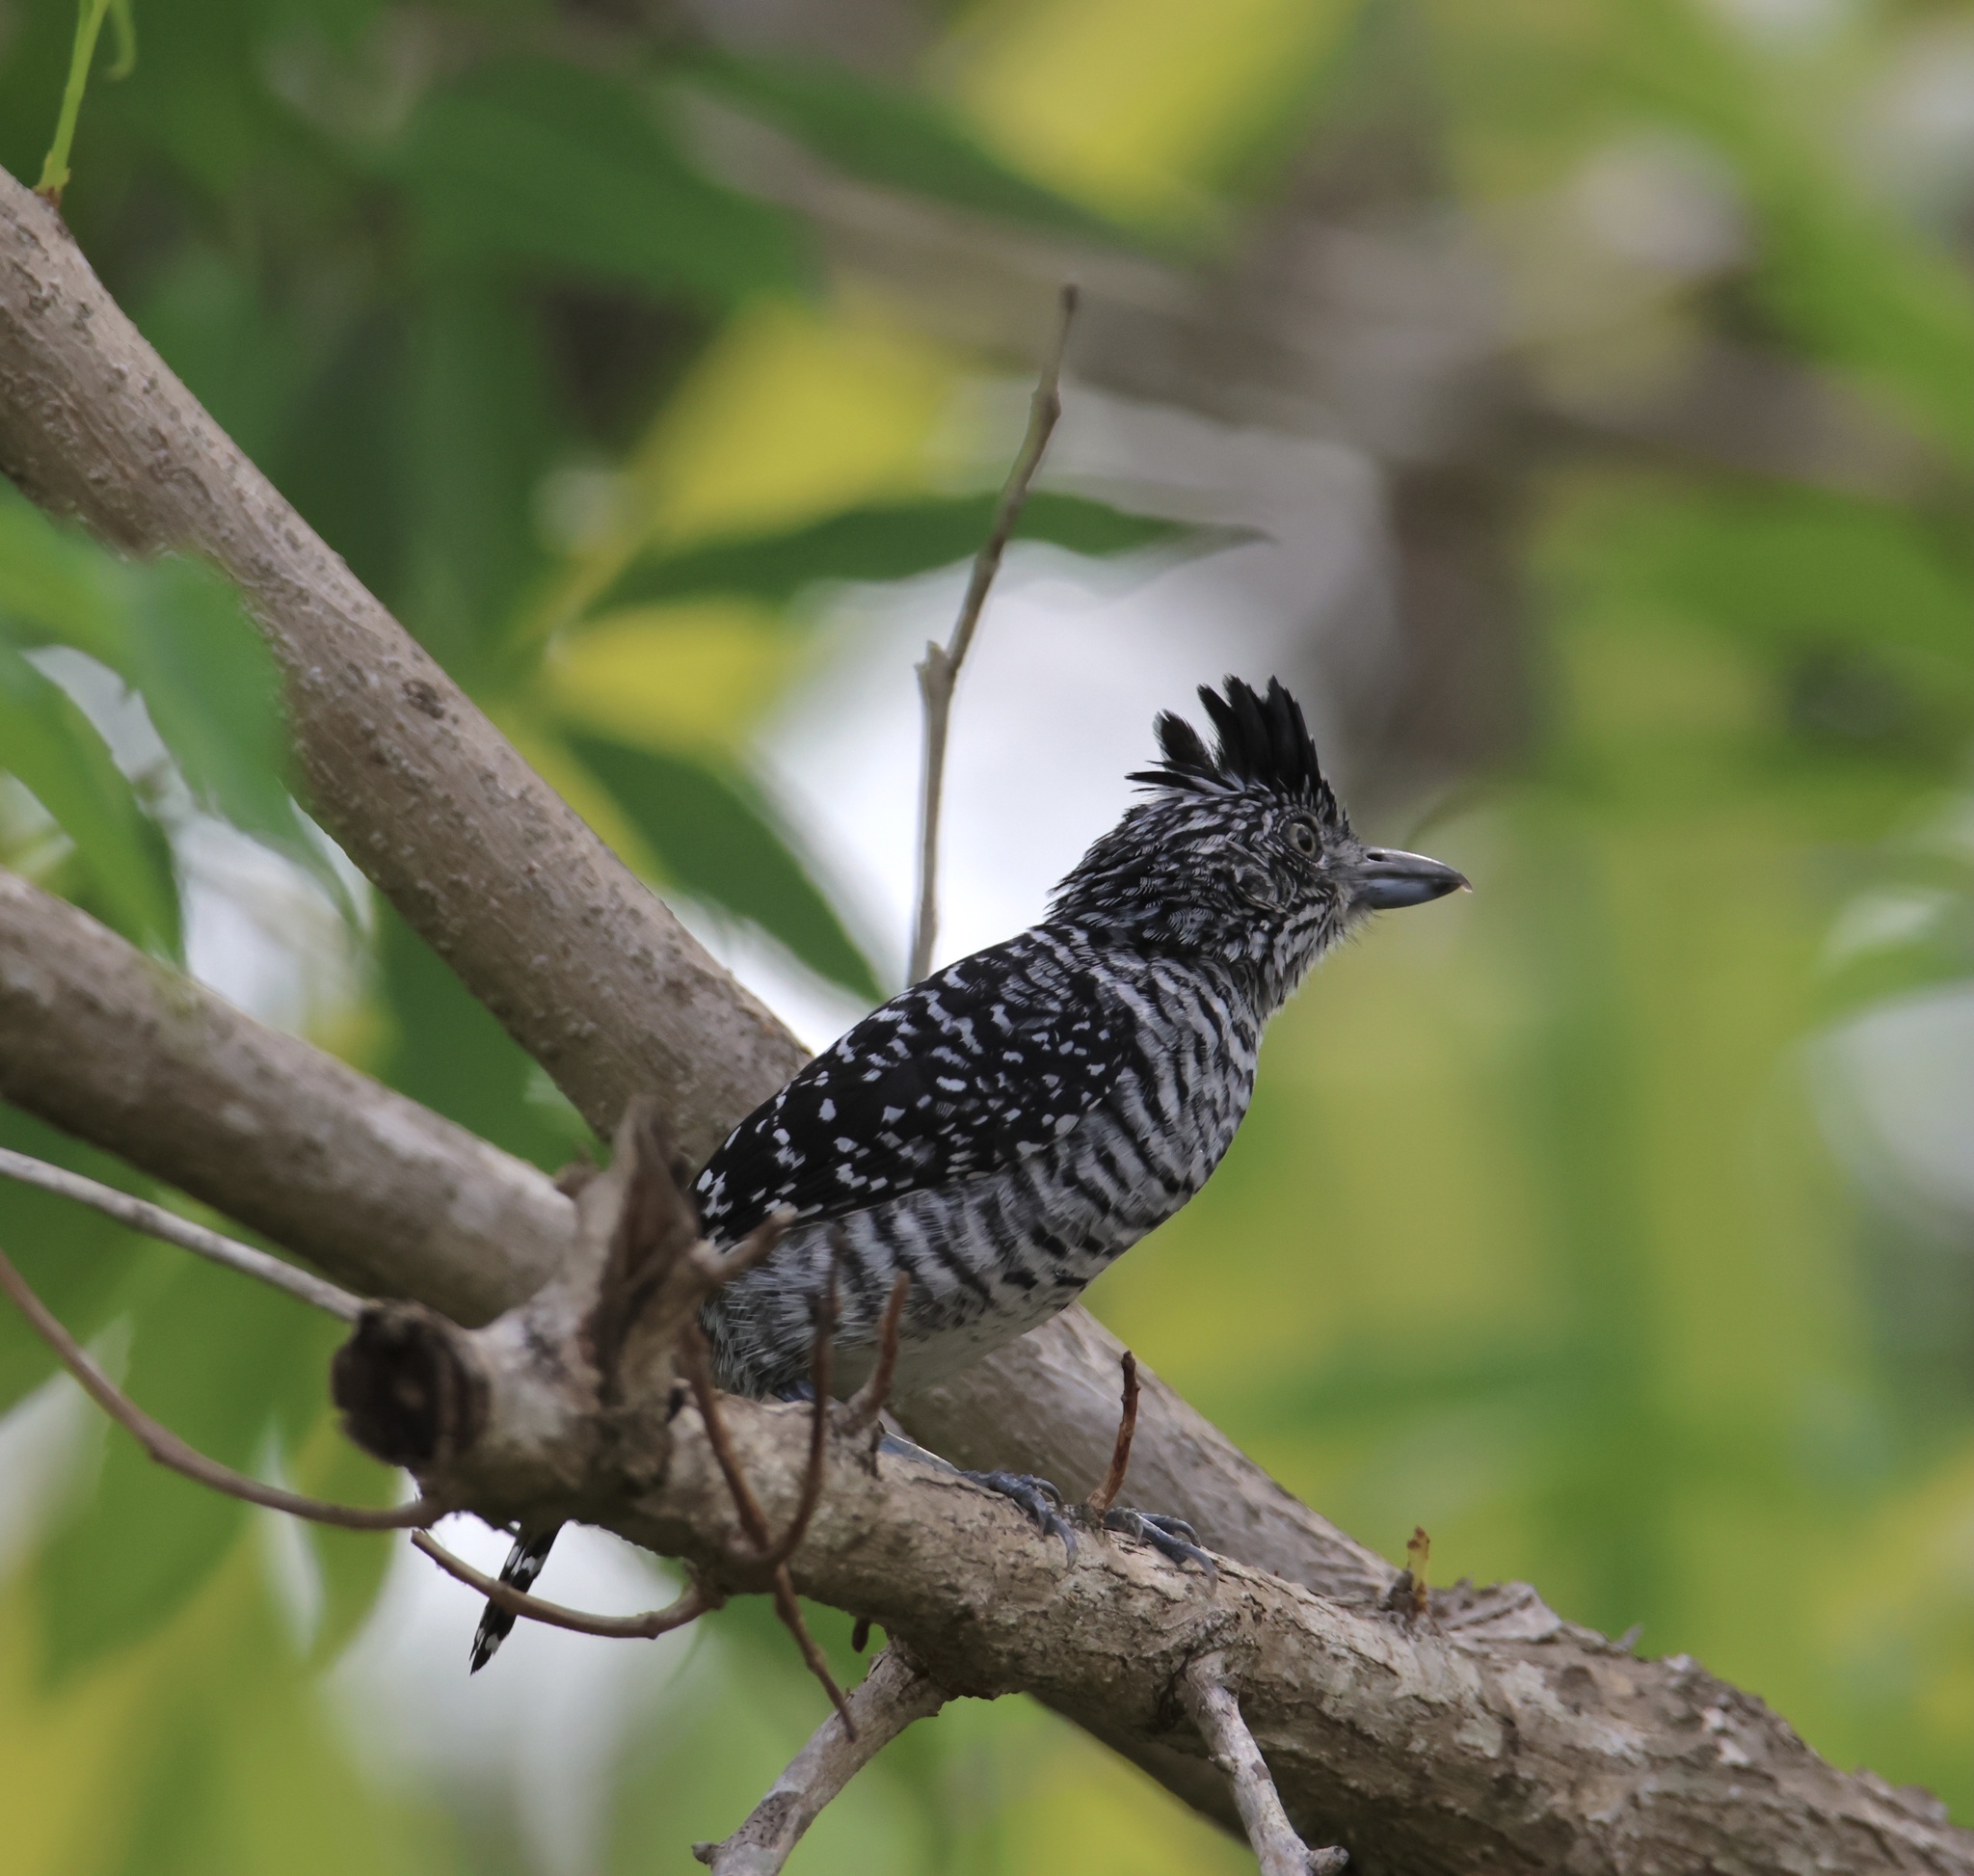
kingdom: Animalia
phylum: Chordata
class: Aves
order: Passeriformes
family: Thamnophilidae
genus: Thamnophilus
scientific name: Thamnophilus doliatus
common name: Barred antshrike
